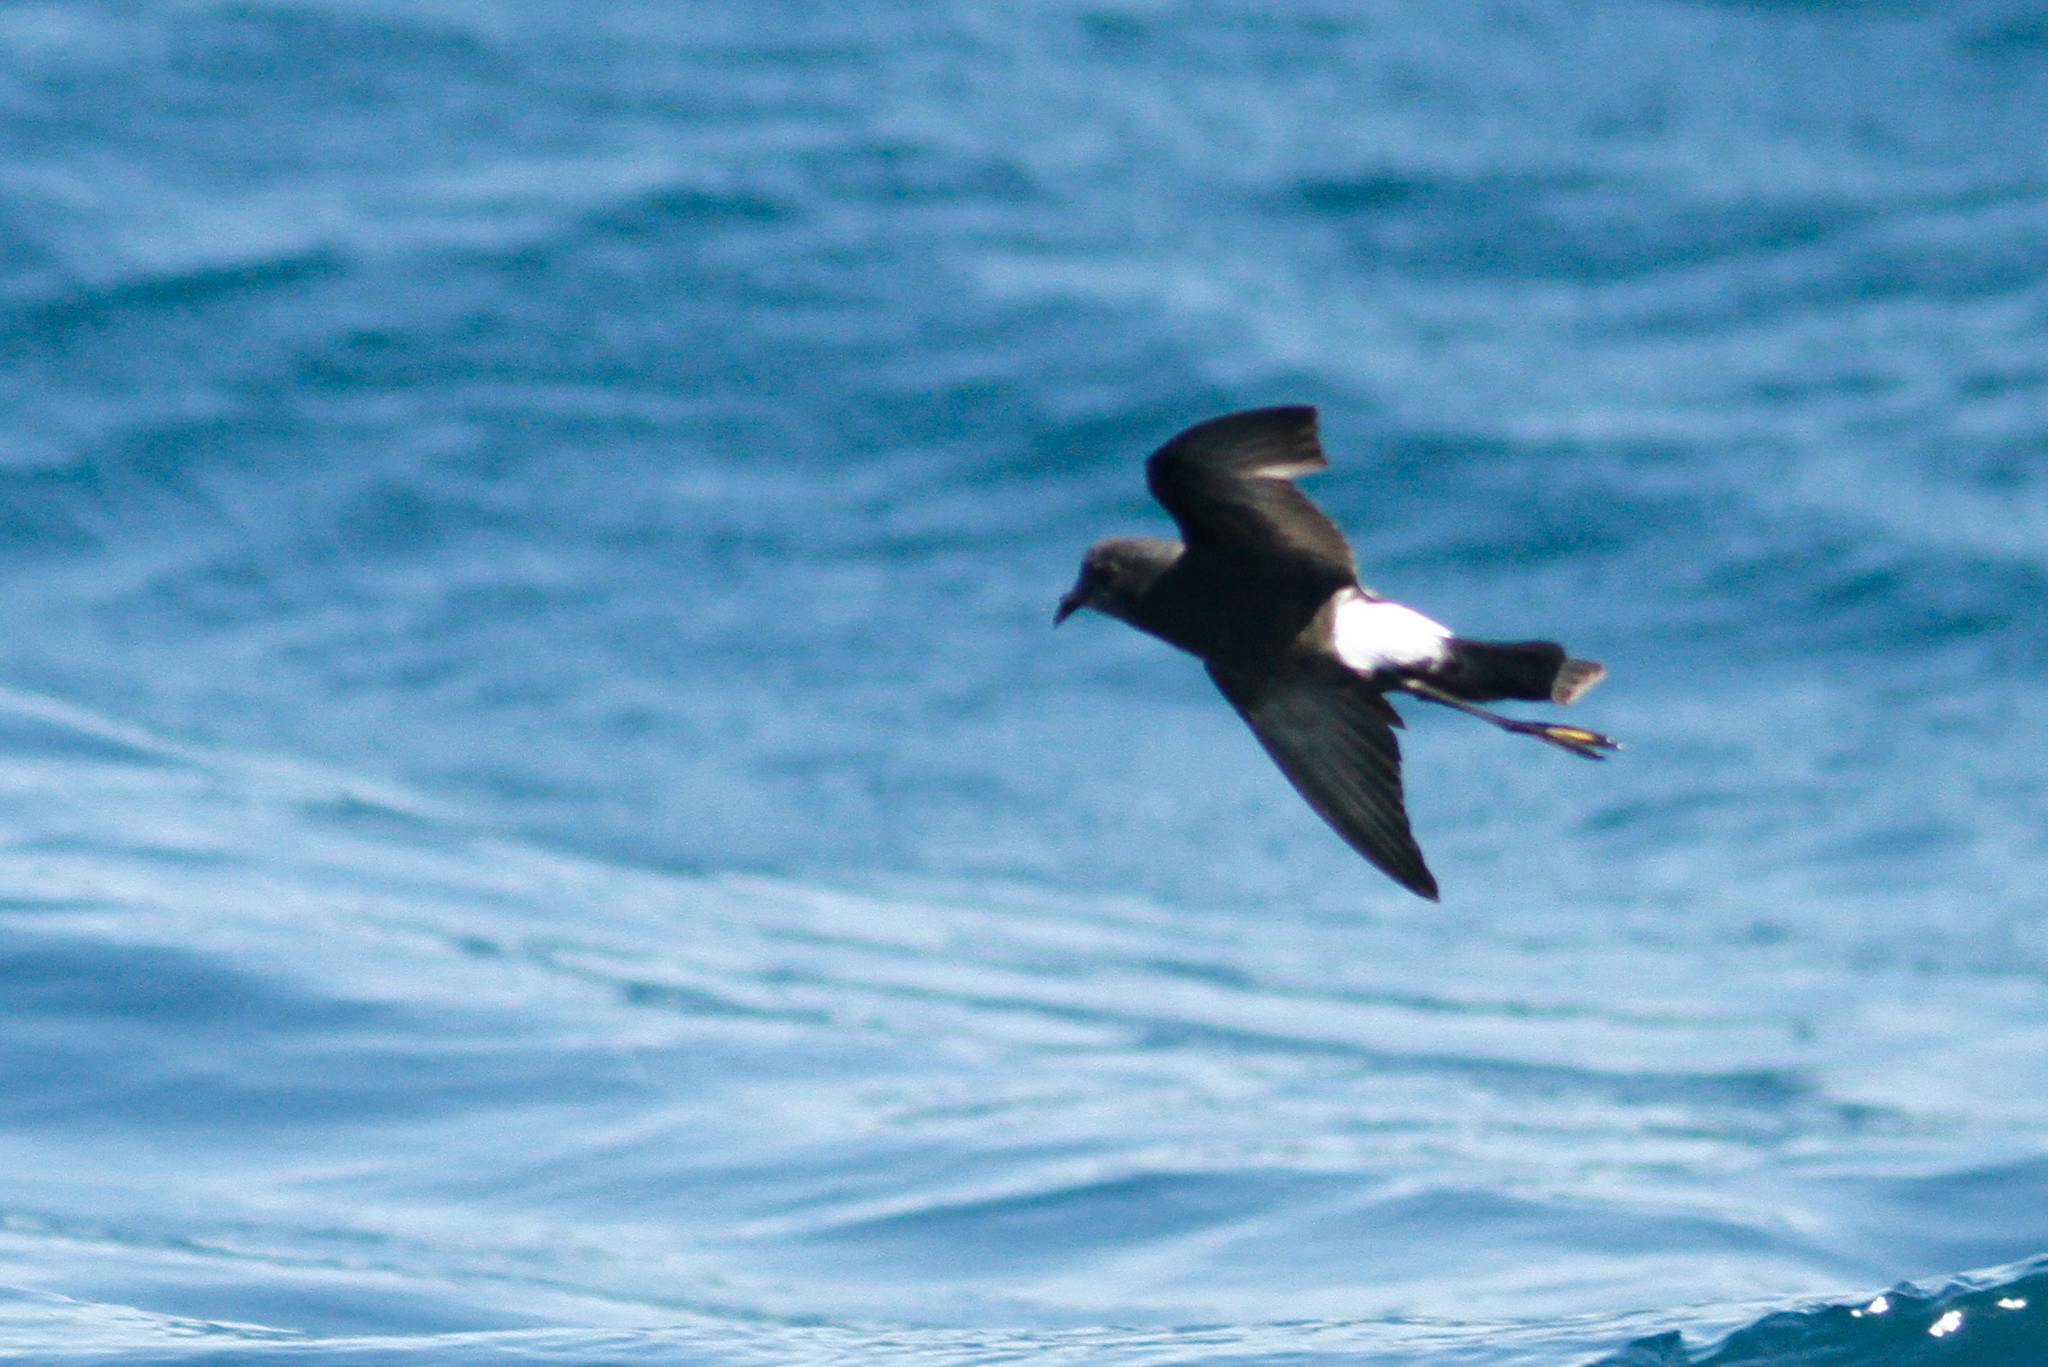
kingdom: Animalia
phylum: Chordata
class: Aves
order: Procellariiformes
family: Hydrobatidae
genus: Oceanites
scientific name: Oceanites oceanicus
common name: Wilson's storm petrel
